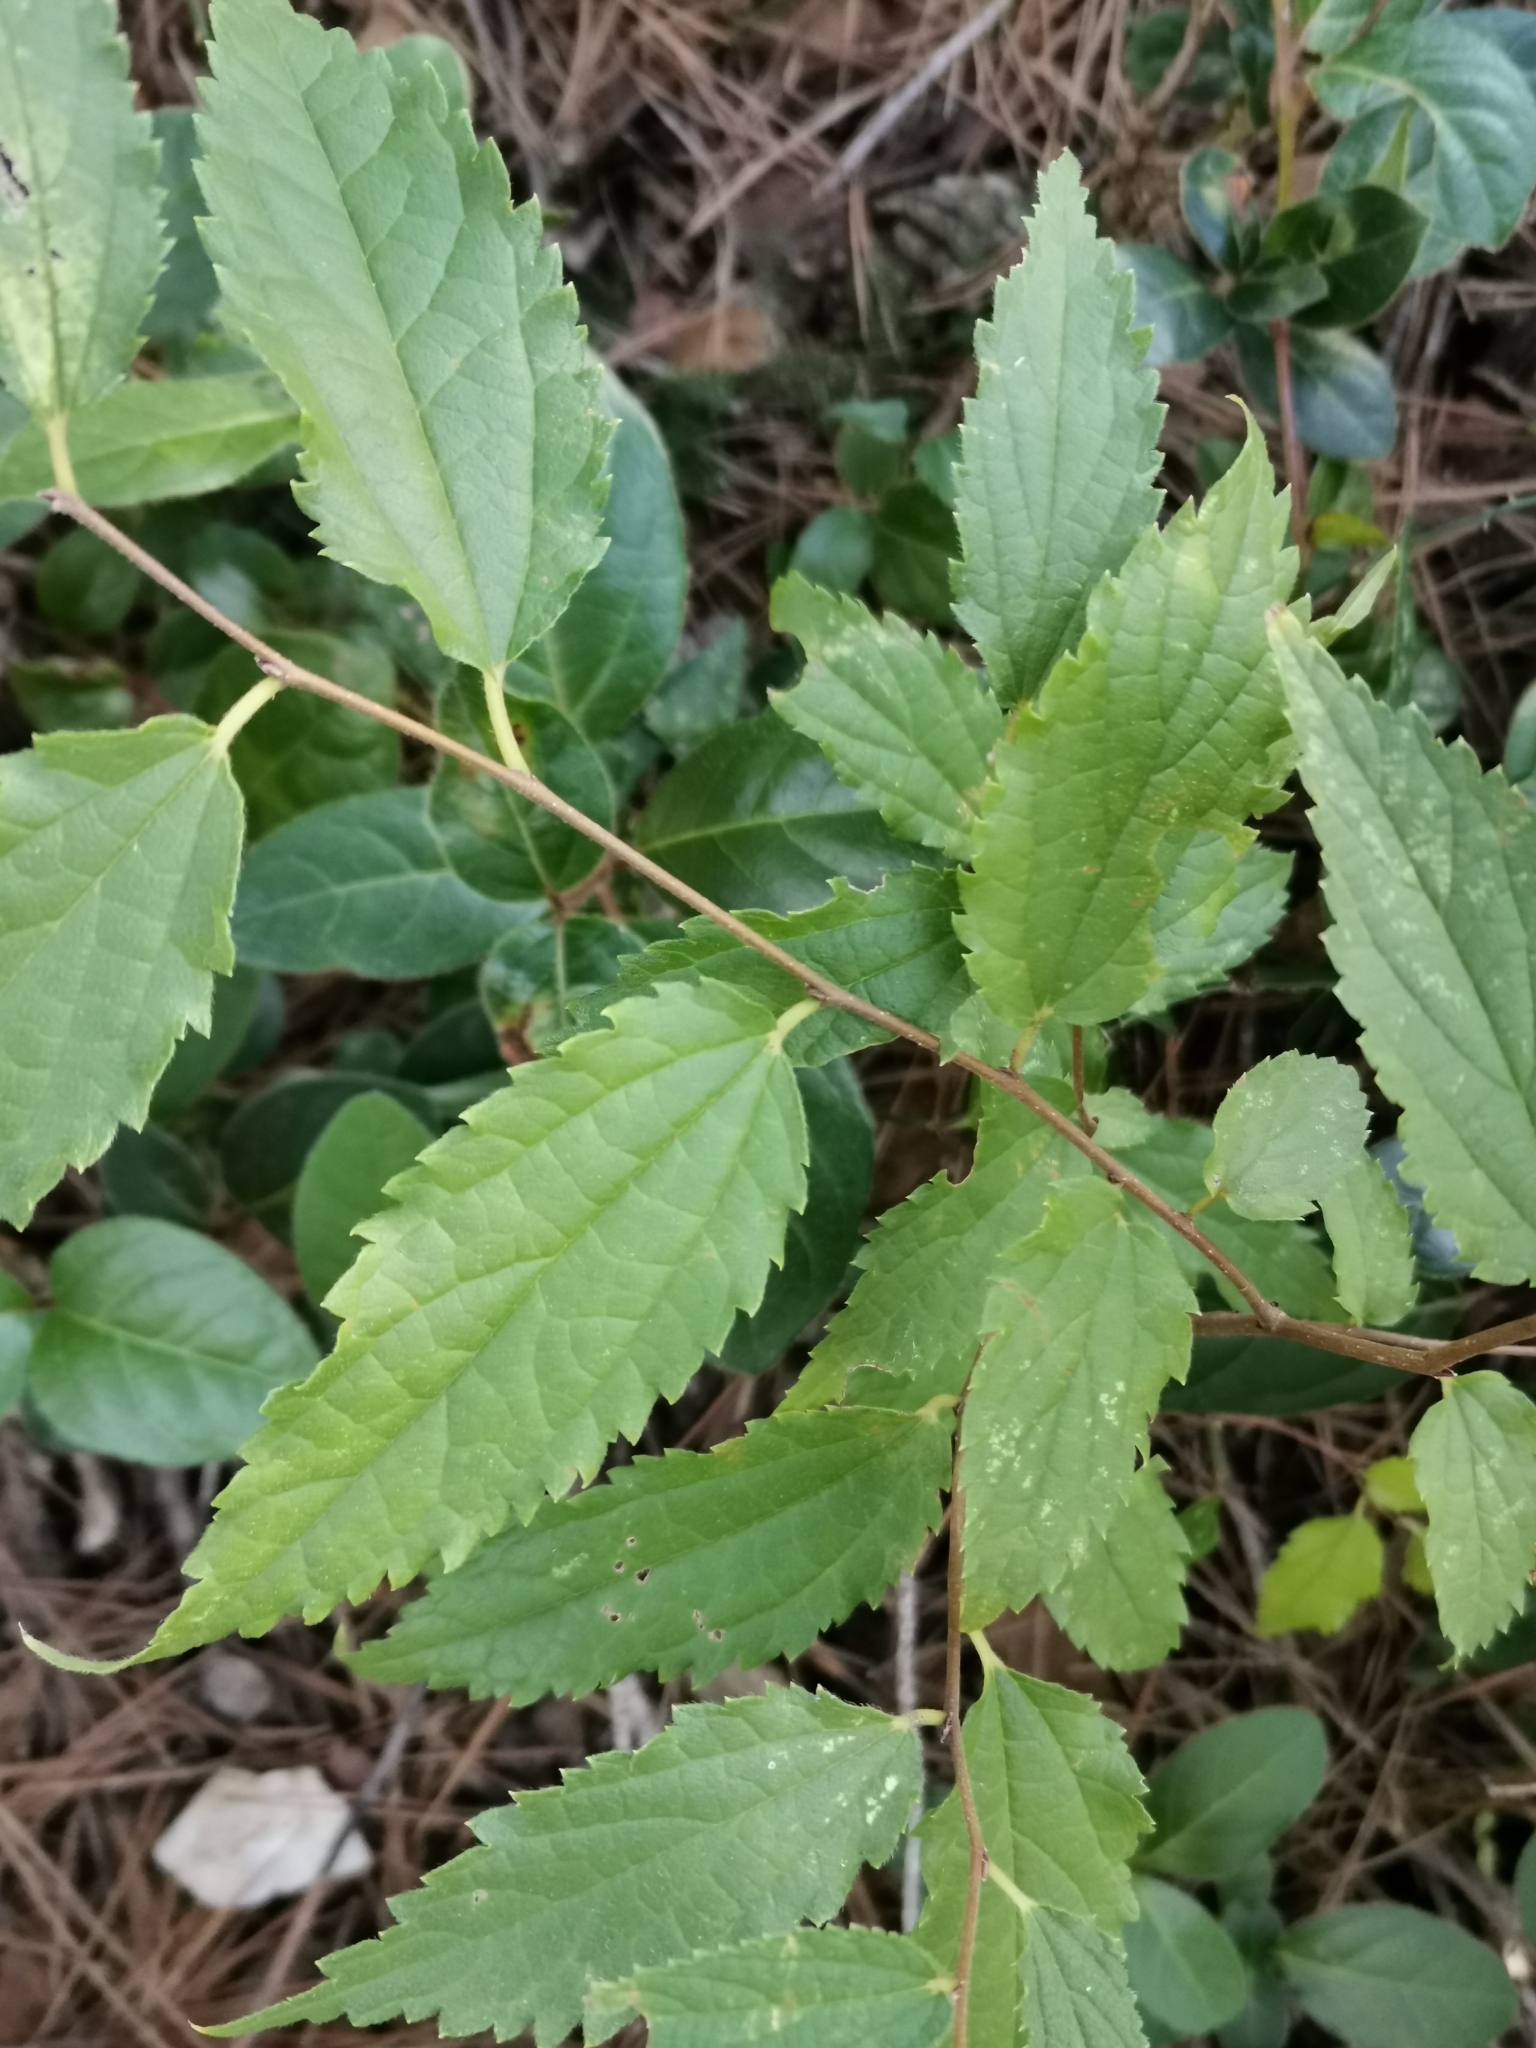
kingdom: Plantae
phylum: Tracheophyta
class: Magnoliopsida
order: Rosales
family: Cannabaceae
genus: Celtis
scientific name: Celtis australis
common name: European hackberry
